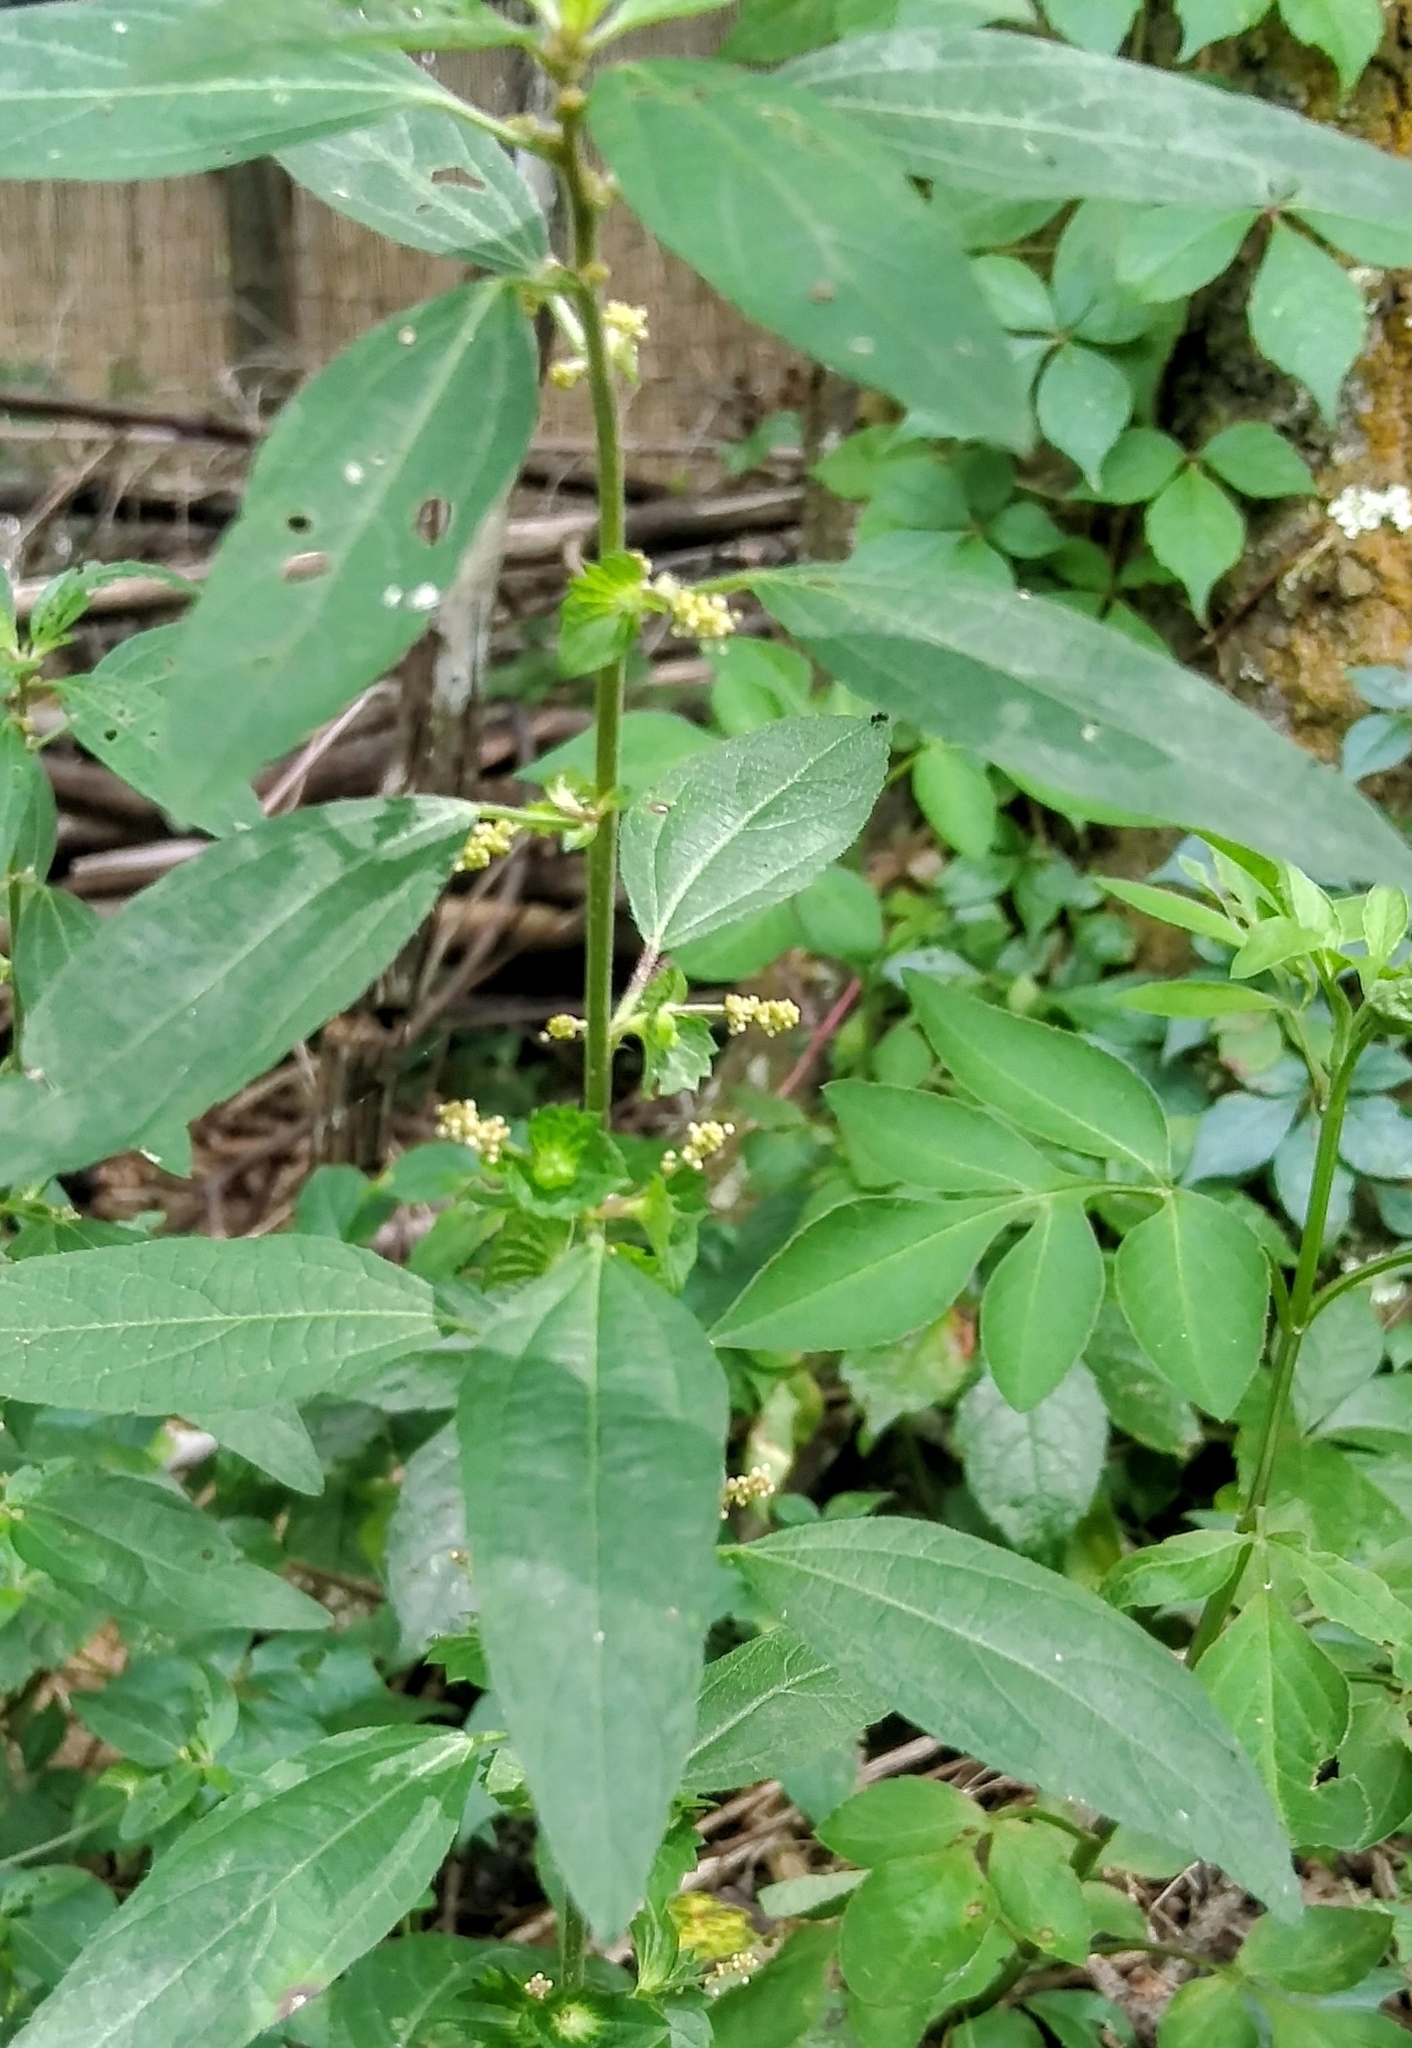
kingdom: Plantae
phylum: Tracheophyta
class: Magnoliopsida
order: Malpighiales
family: Euphorbiaceae
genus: Acalypha
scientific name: Acalypha gracilens
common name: Slender three-seeded mercury
